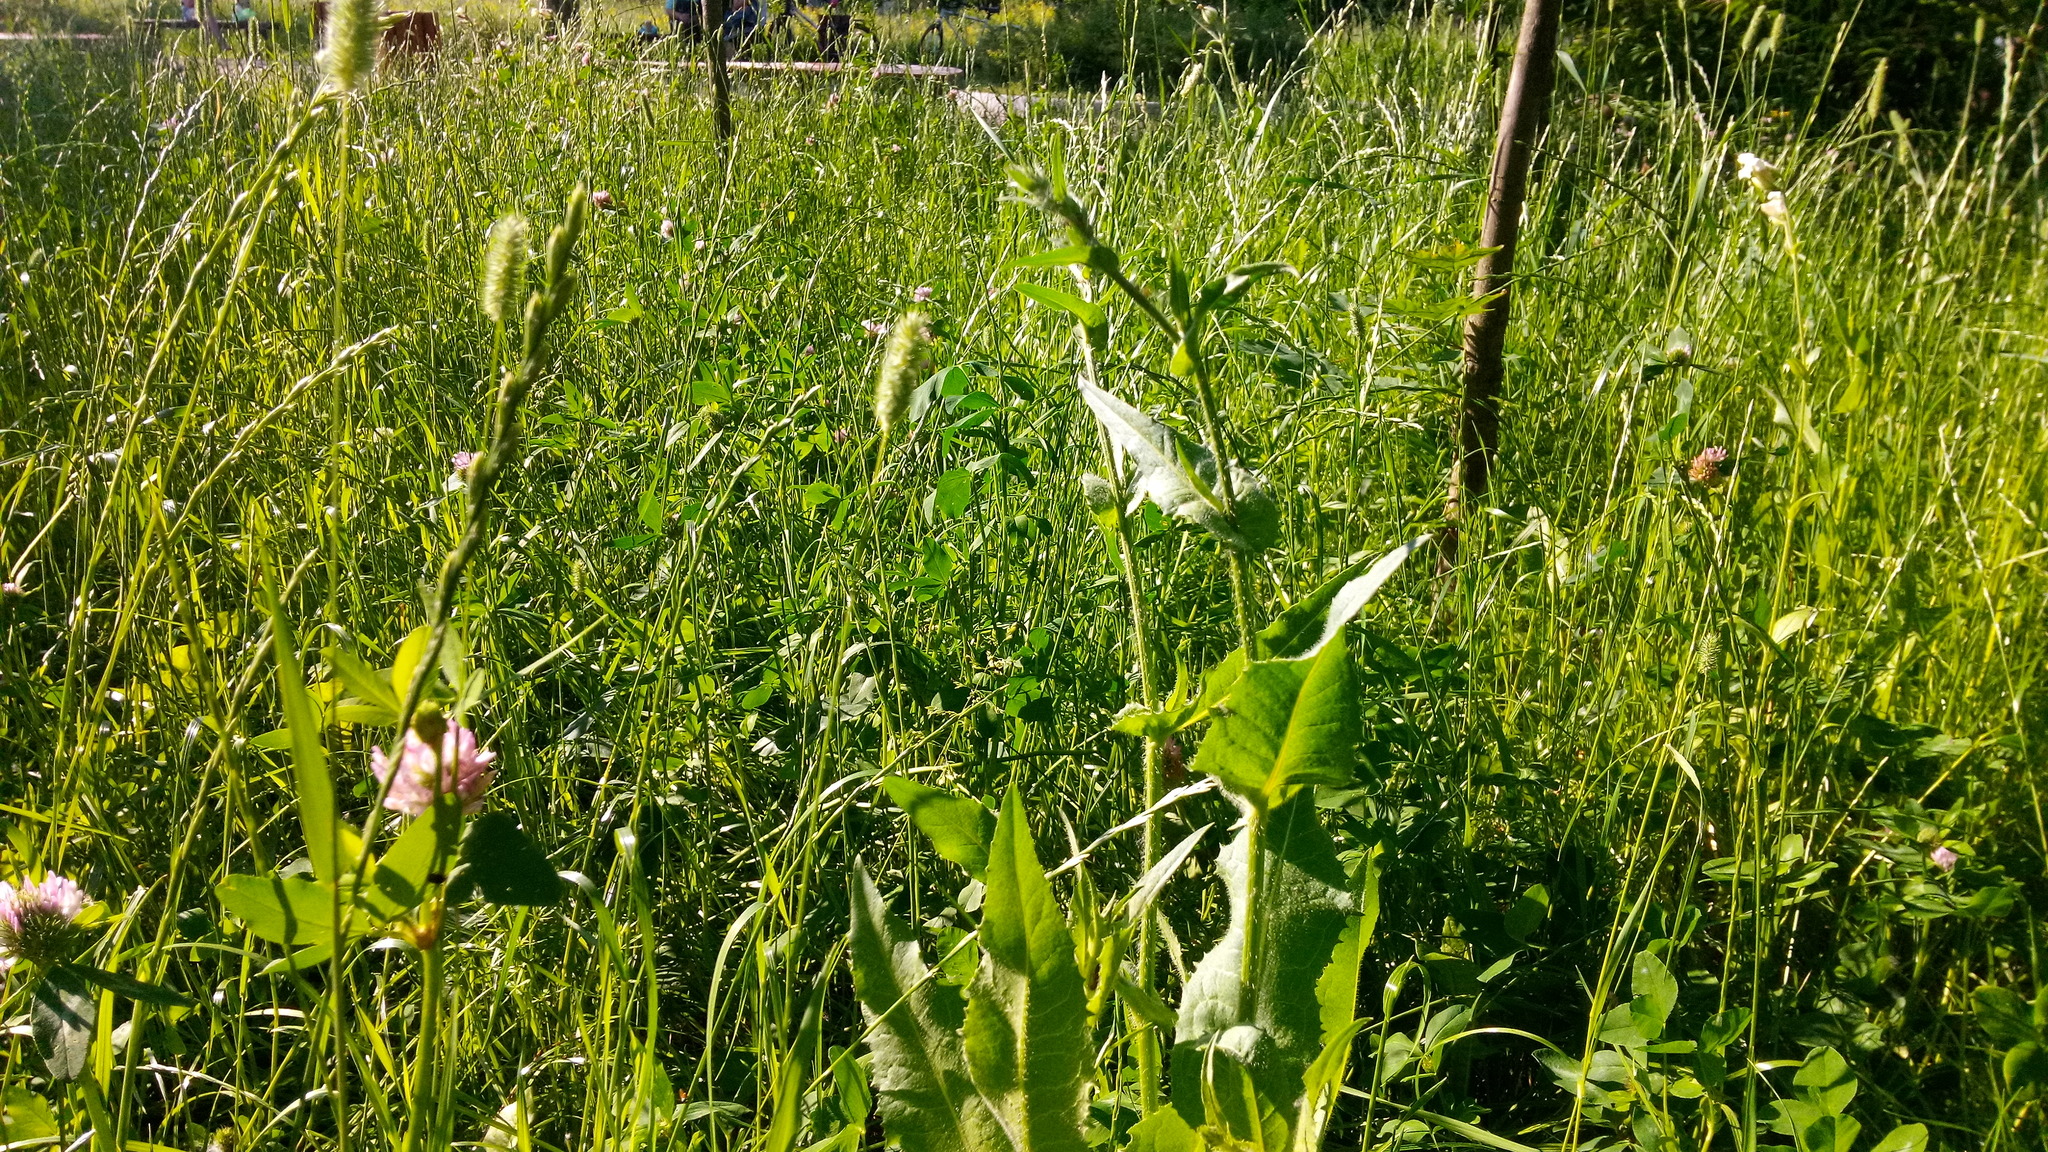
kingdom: Plantae
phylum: Tracheophyta
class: Magnoliopsida
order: Asterales
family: Asteraceae
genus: Cichorium
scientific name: Cichorium intybus
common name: Chicory
